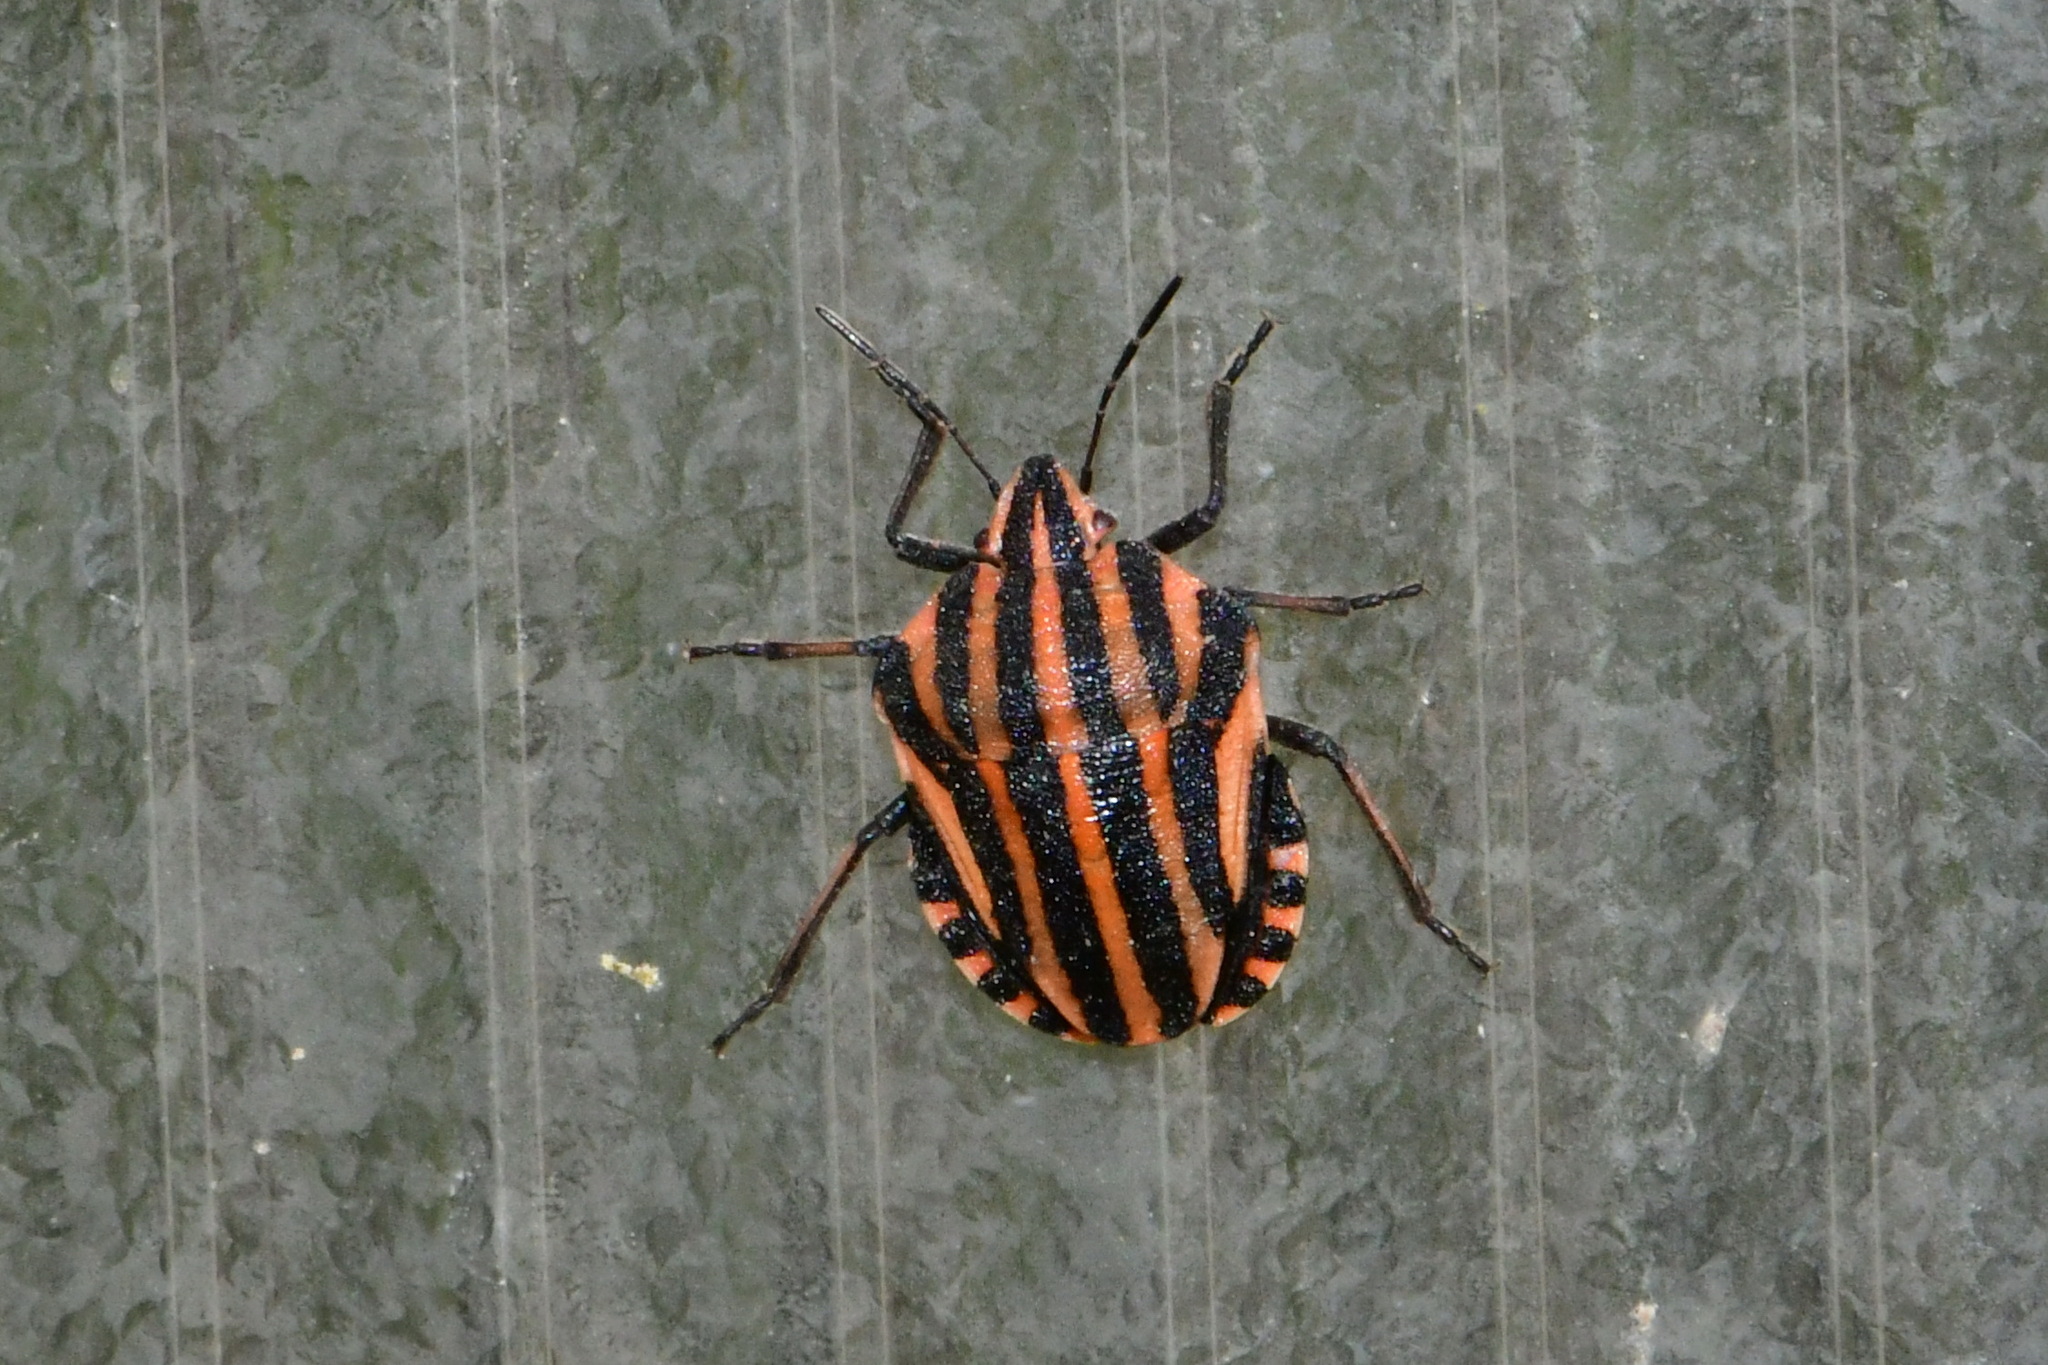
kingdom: Animalia
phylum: Arthropoda
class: Insecta
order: Hemiptera
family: Pentatomidae
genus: Graphosoma
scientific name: Graphosoma italicum
